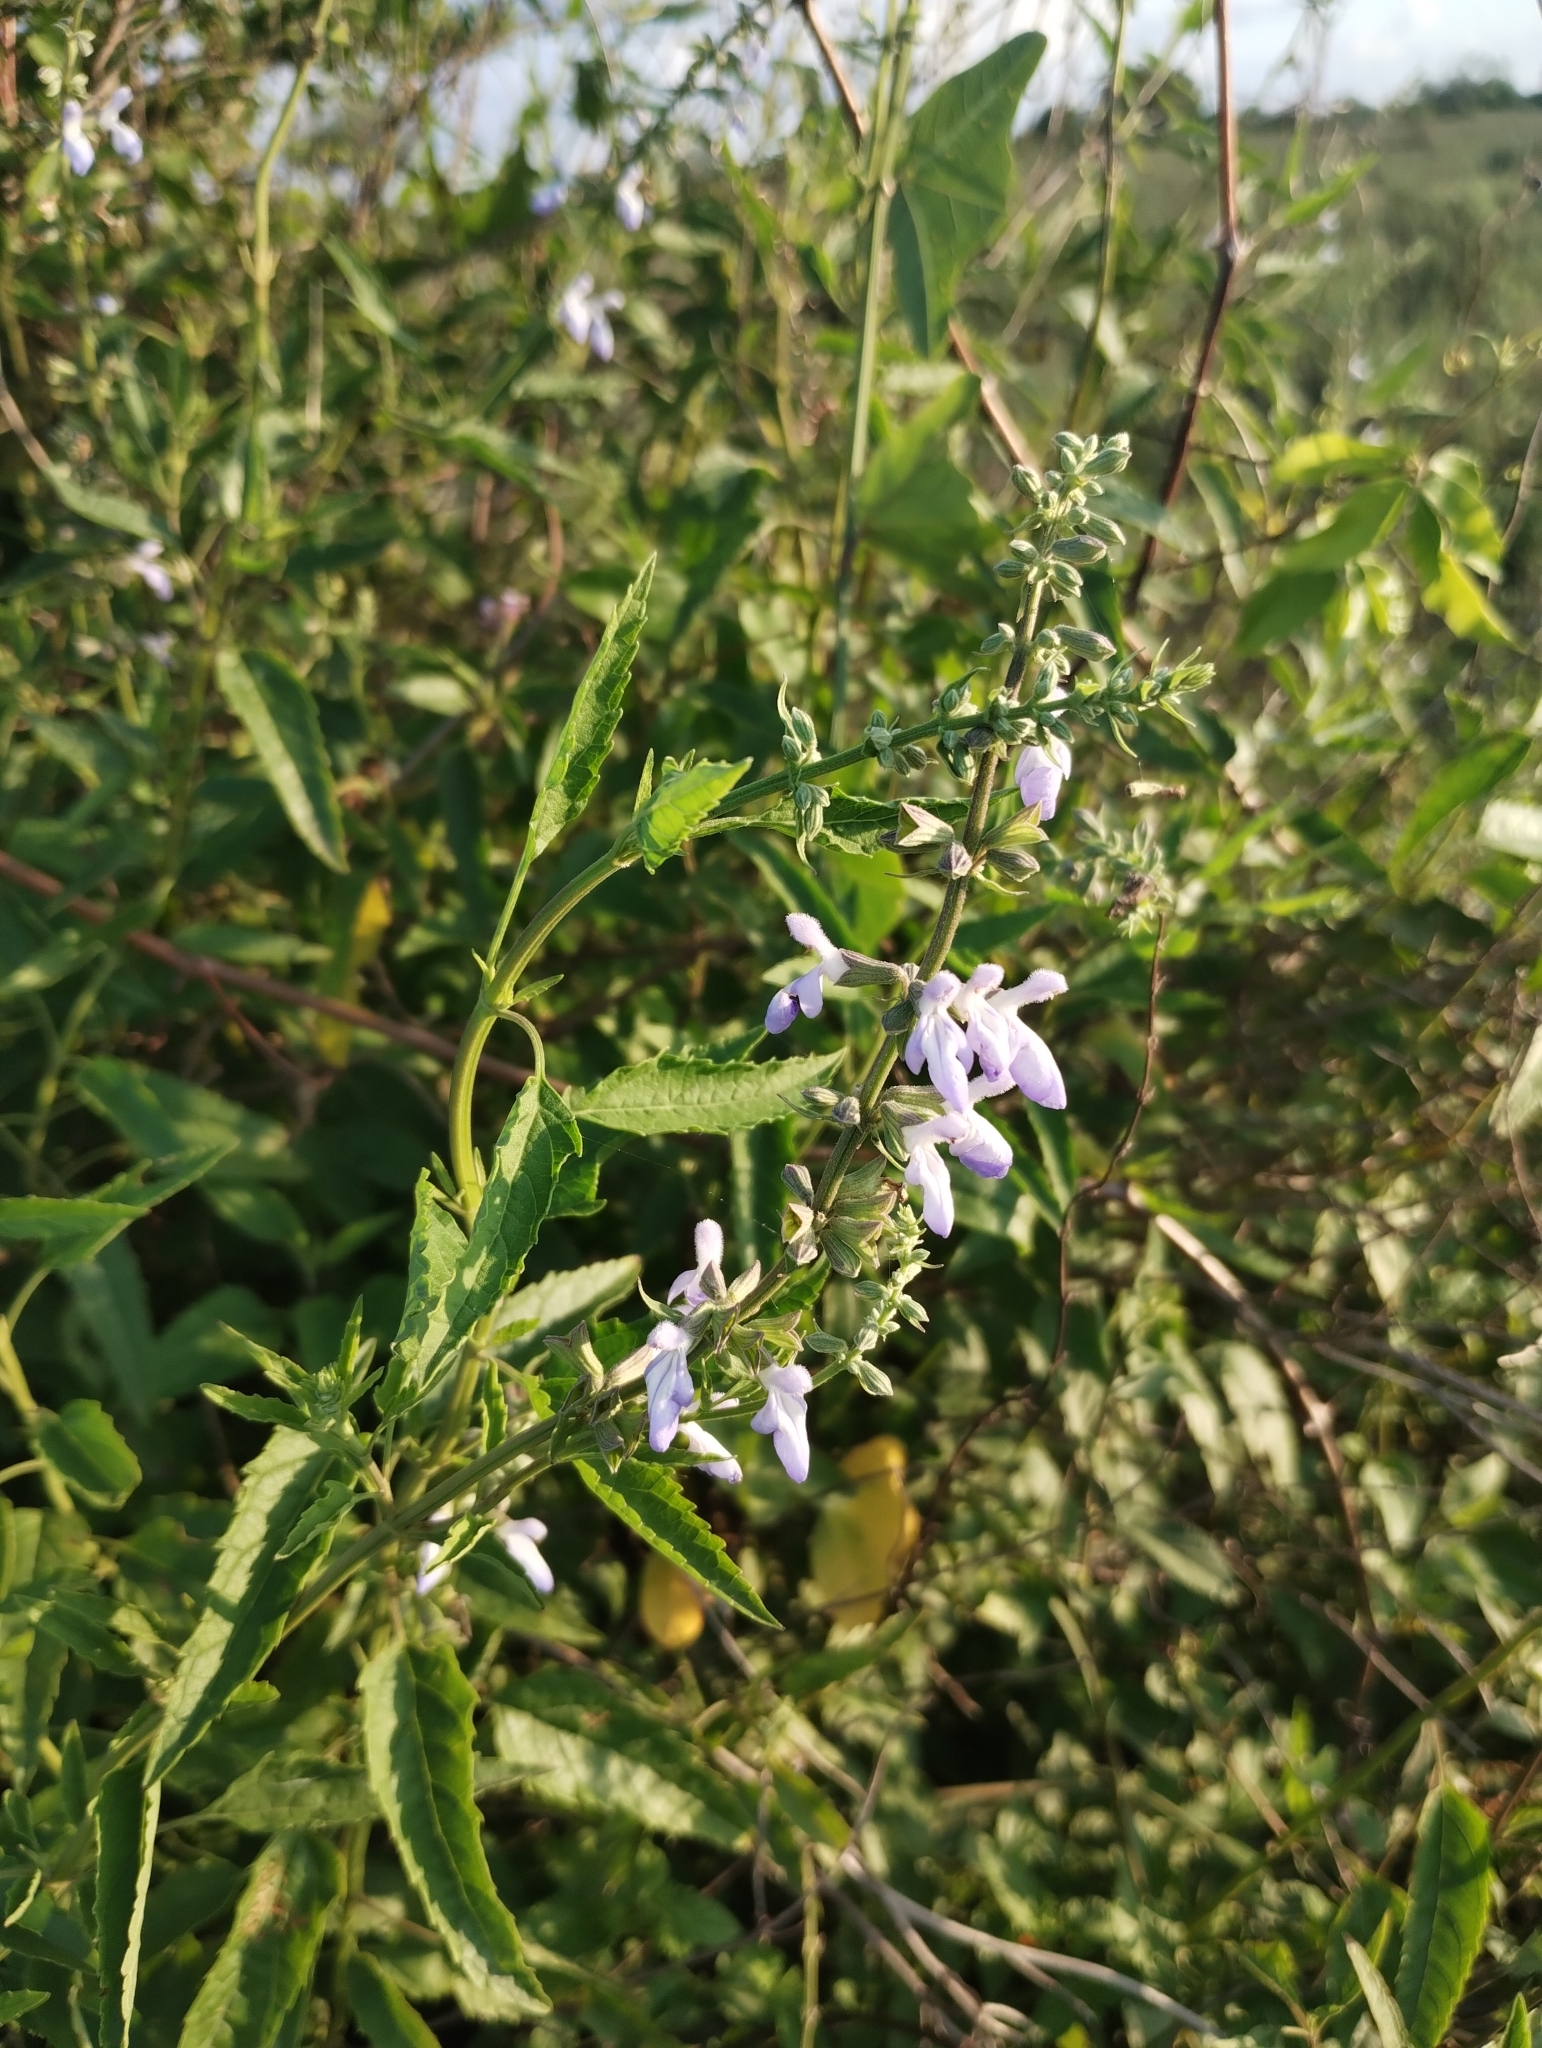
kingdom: Plantae
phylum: Tracheophyta
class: Magnoliopsida
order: Lamiales
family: Lamiaceae
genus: Salvia
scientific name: Salvia pallida
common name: Pale sage
